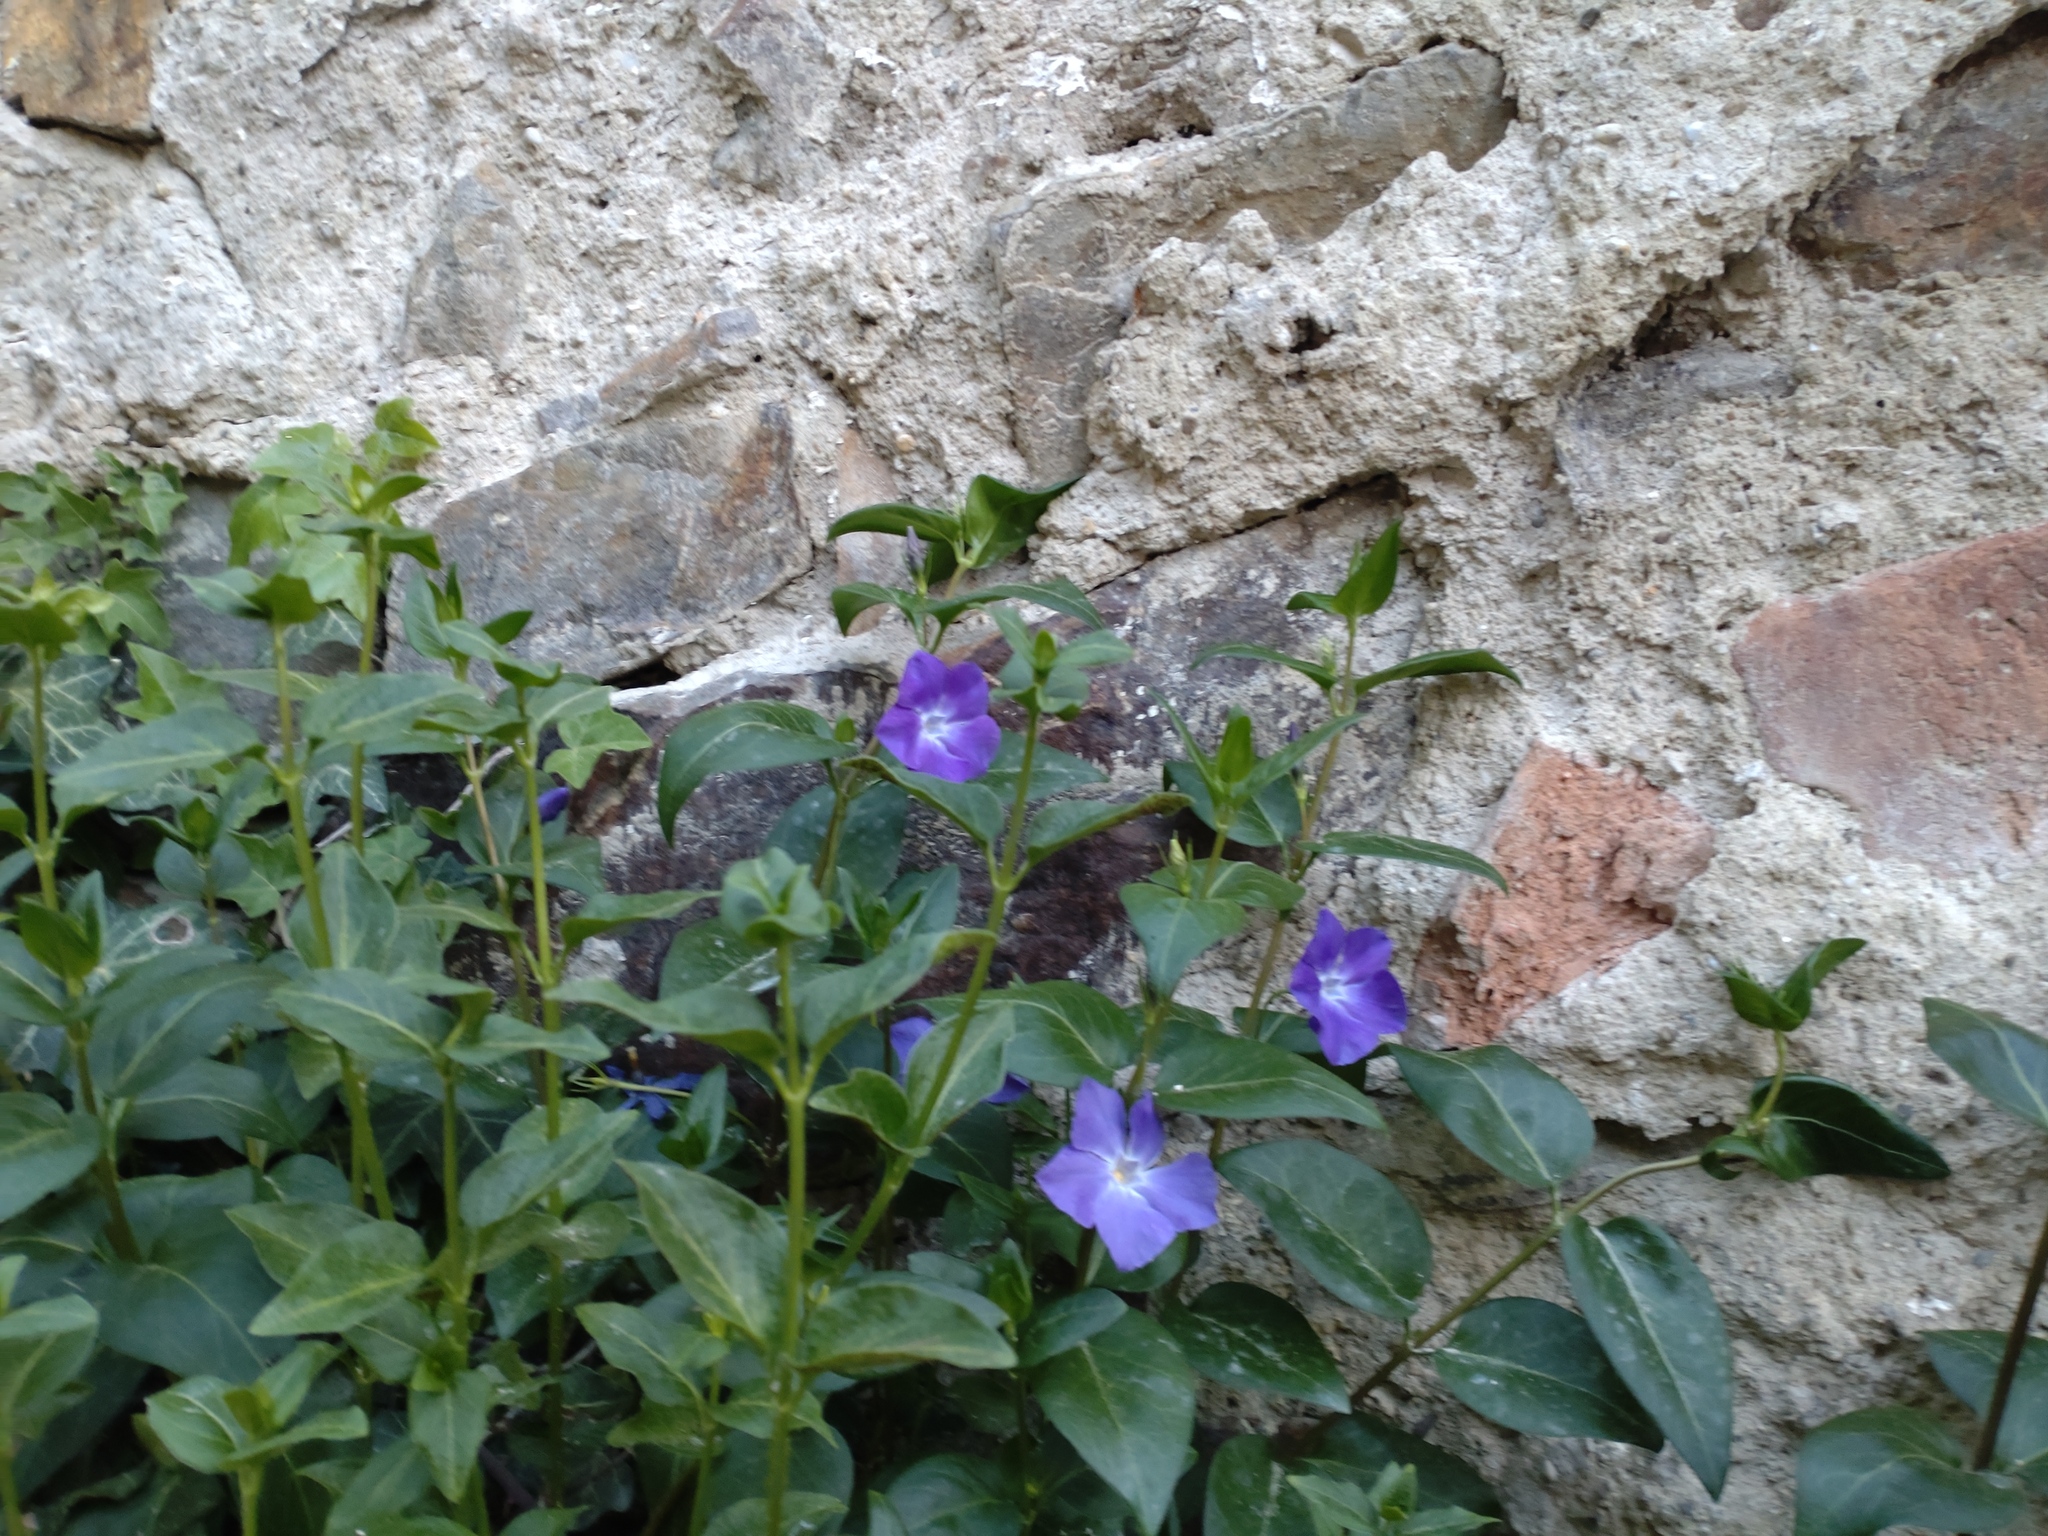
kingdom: Plantae
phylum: Tracheophyta
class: Magnoliopsida
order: Gentianales
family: Apocynaceae
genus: Vinca
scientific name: Vinca major
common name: Greater periwinkle
